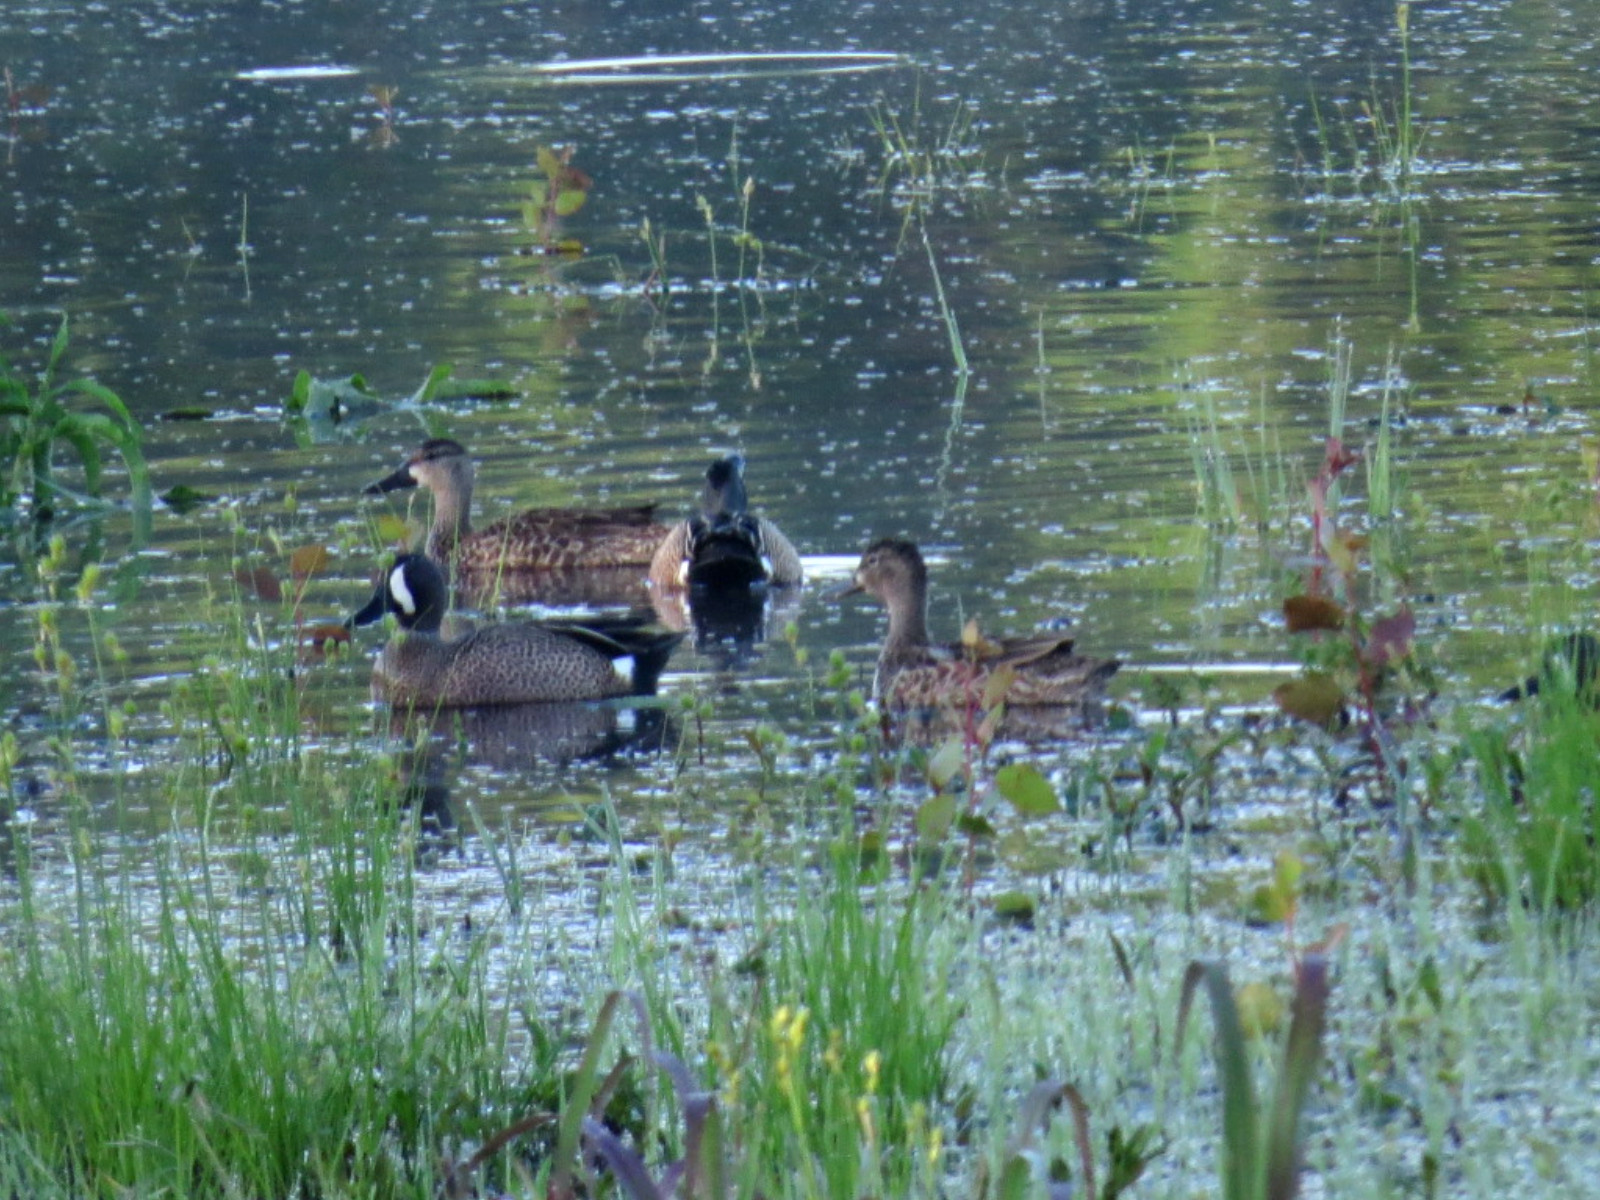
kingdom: Animalia
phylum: Chordata
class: Aves
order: Anseriformes
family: Anatidae
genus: Spatula
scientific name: Spatula discors
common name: Blue-winged teal
